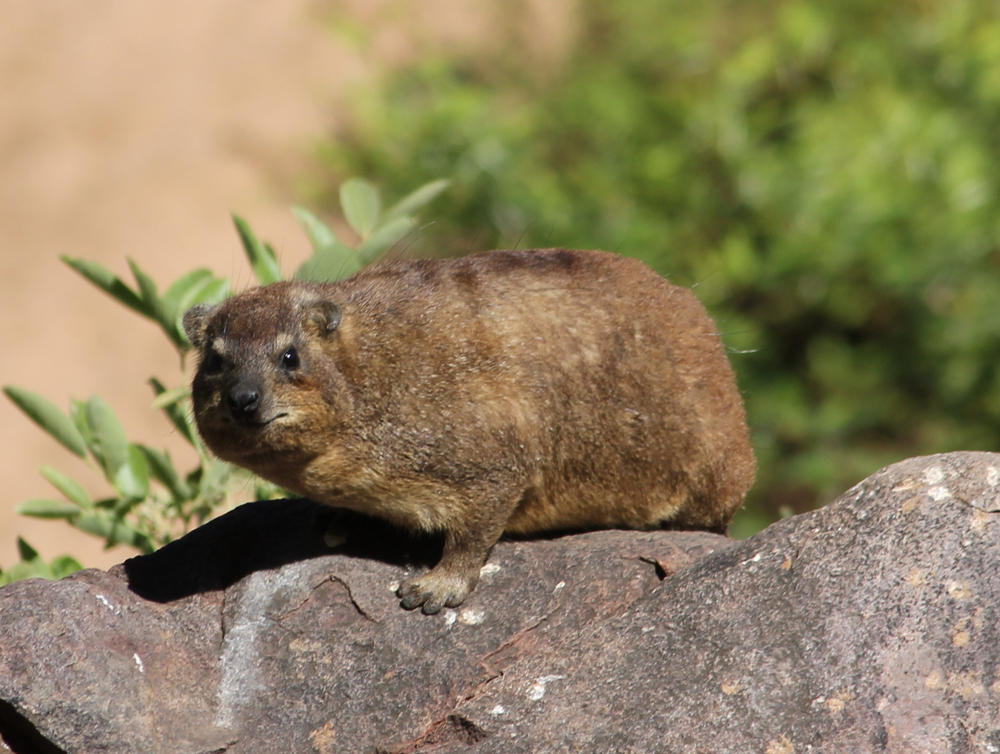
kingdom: Animalia
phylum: Chordata
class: Mammalia
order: Hyracoidea
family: Procaviidae
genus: Procavia
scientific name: Procavia capensis
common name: Rock hyrax
